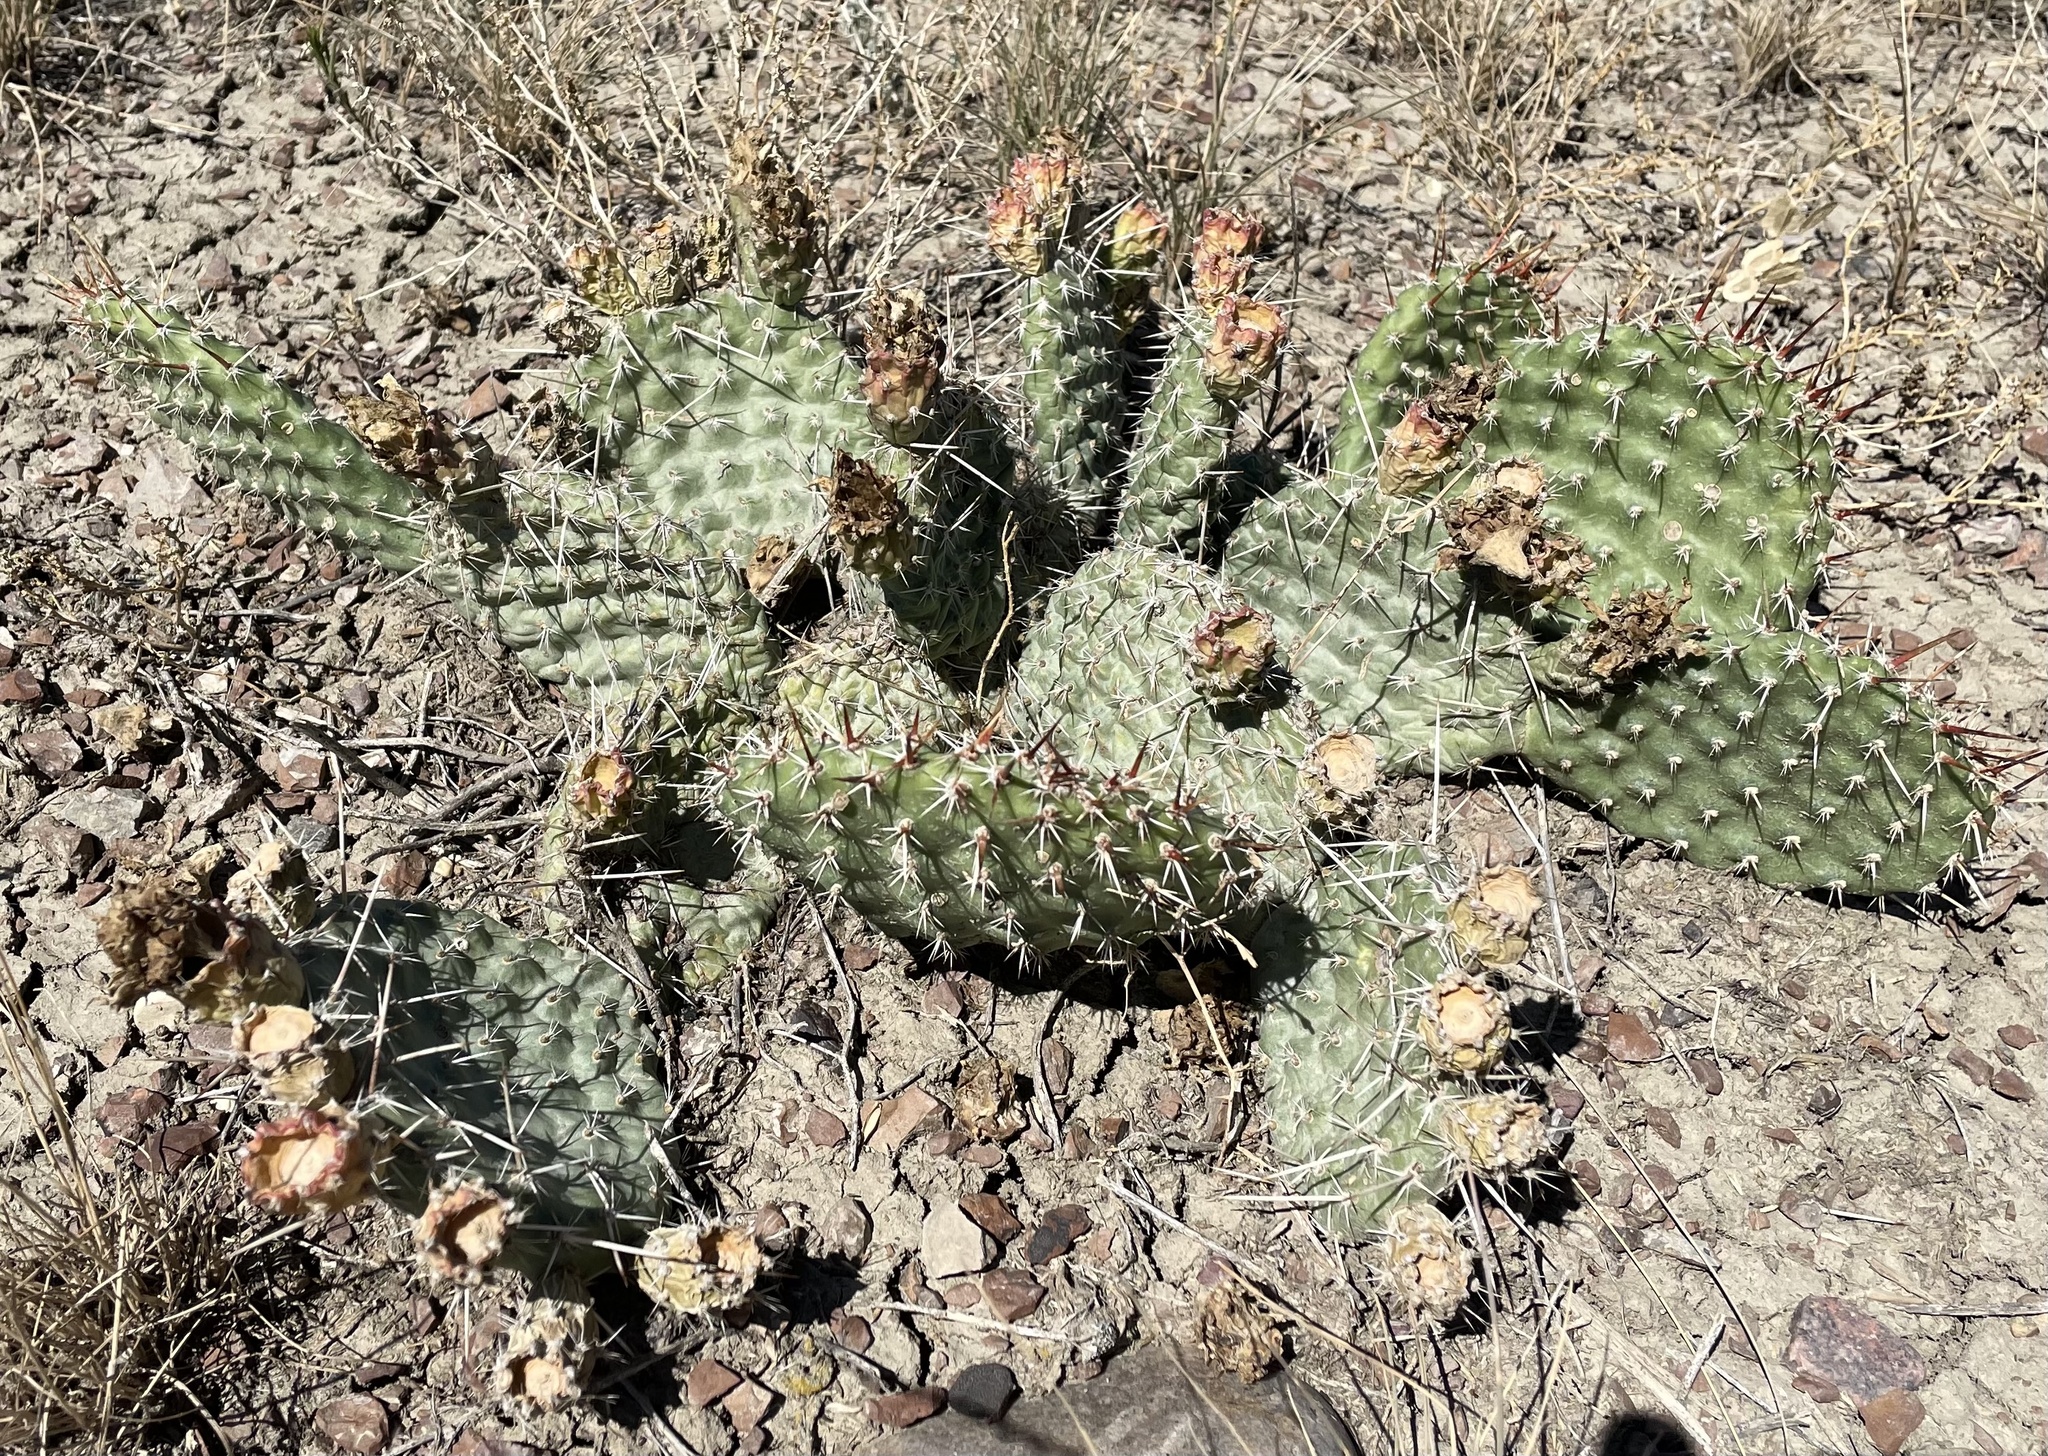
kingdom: Plantae
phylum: Tracheophyta
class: Magnoliopsida
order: Caryophyllales
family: Cactaceae
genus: Opuntia
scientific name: Opuntia polyacantha
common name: Plains prickly-pear
